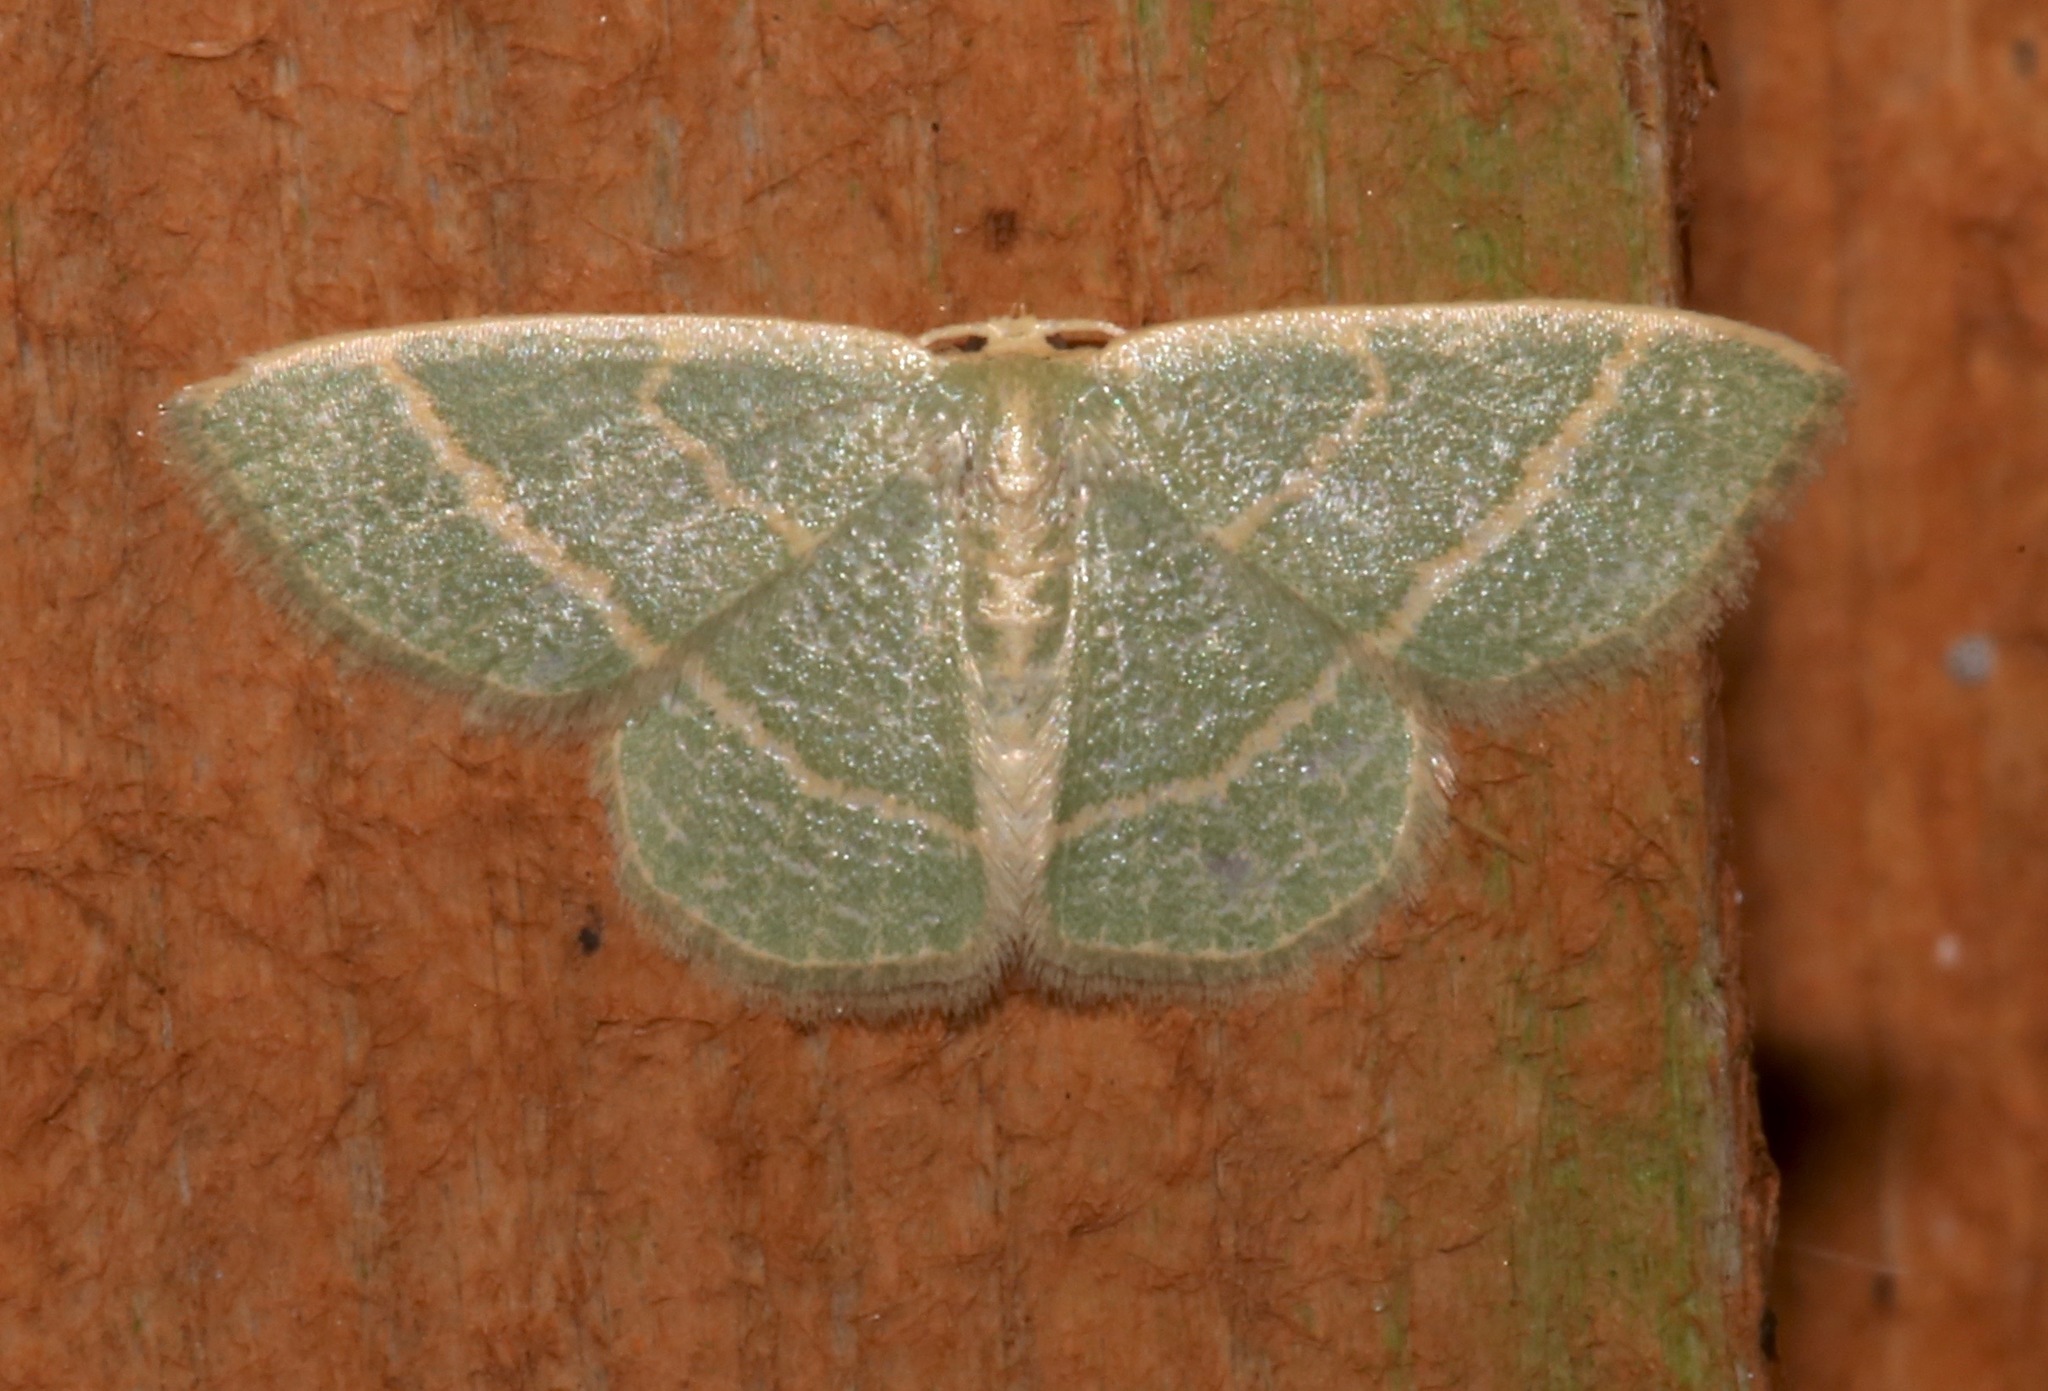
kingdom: Animalia
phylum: Arthropoda
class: Insecta
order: Lepidoptera
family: Geometridae
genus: Chlorochlamys
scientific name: Chlorochlamys chloroleucaria
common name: Blackberry looper
